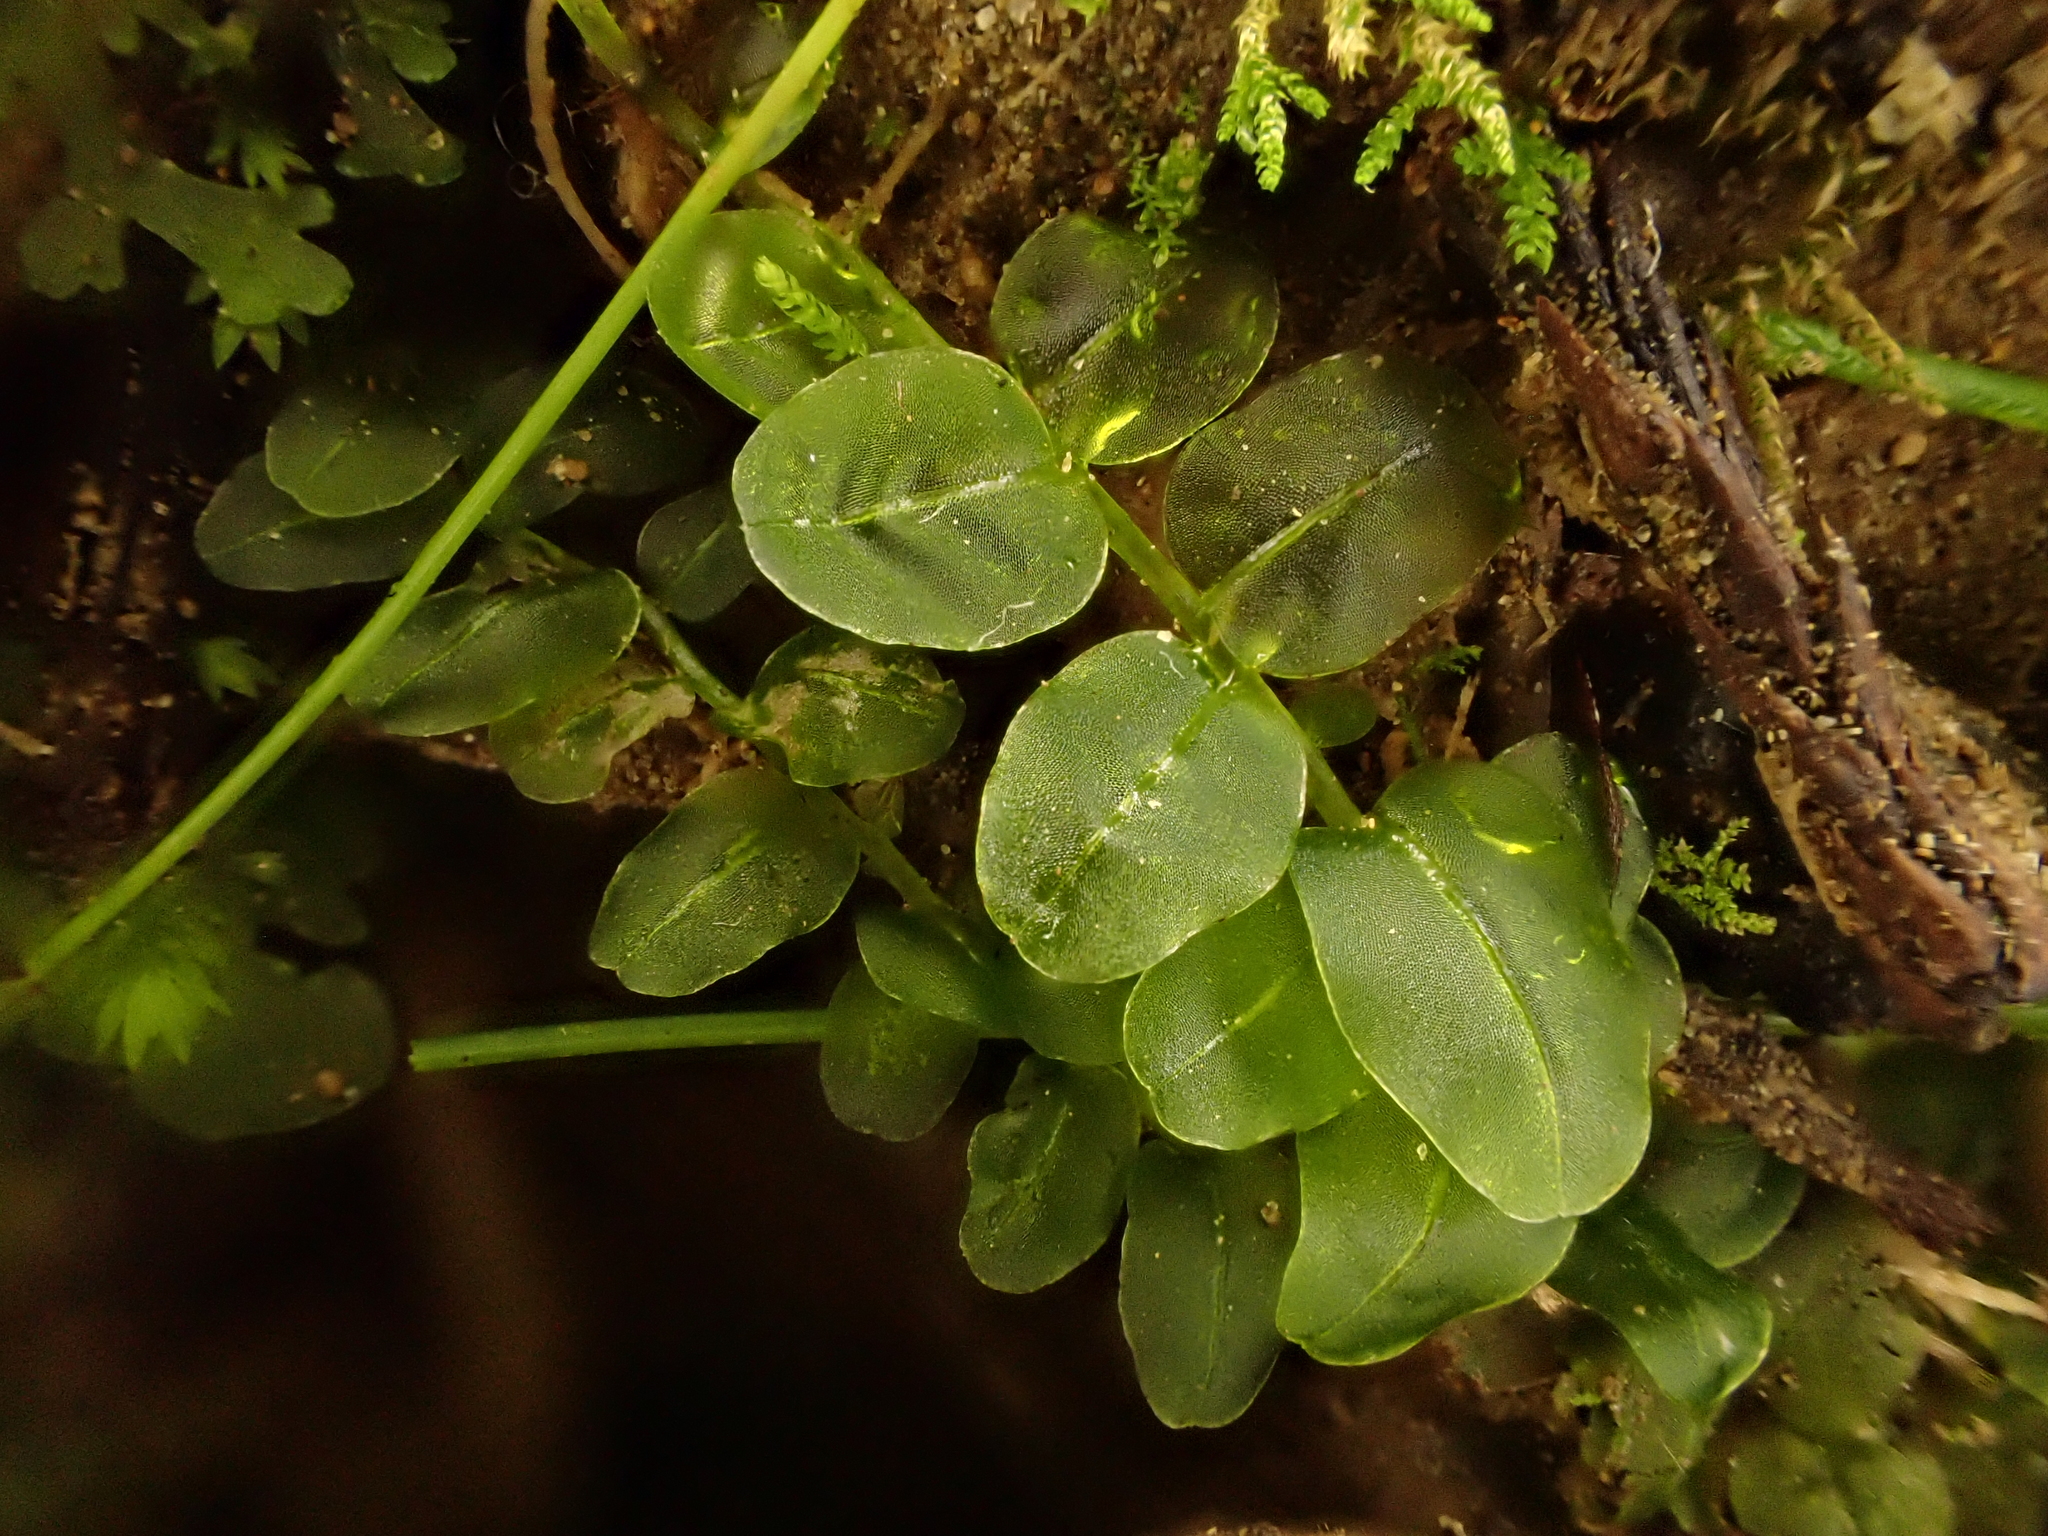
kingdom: Plantae
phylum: Bryophyta
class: Bryopsida
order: Bryales
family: Mniaceae
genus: Plagiomnium
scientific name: Plagiomnium novae-zealandiae
